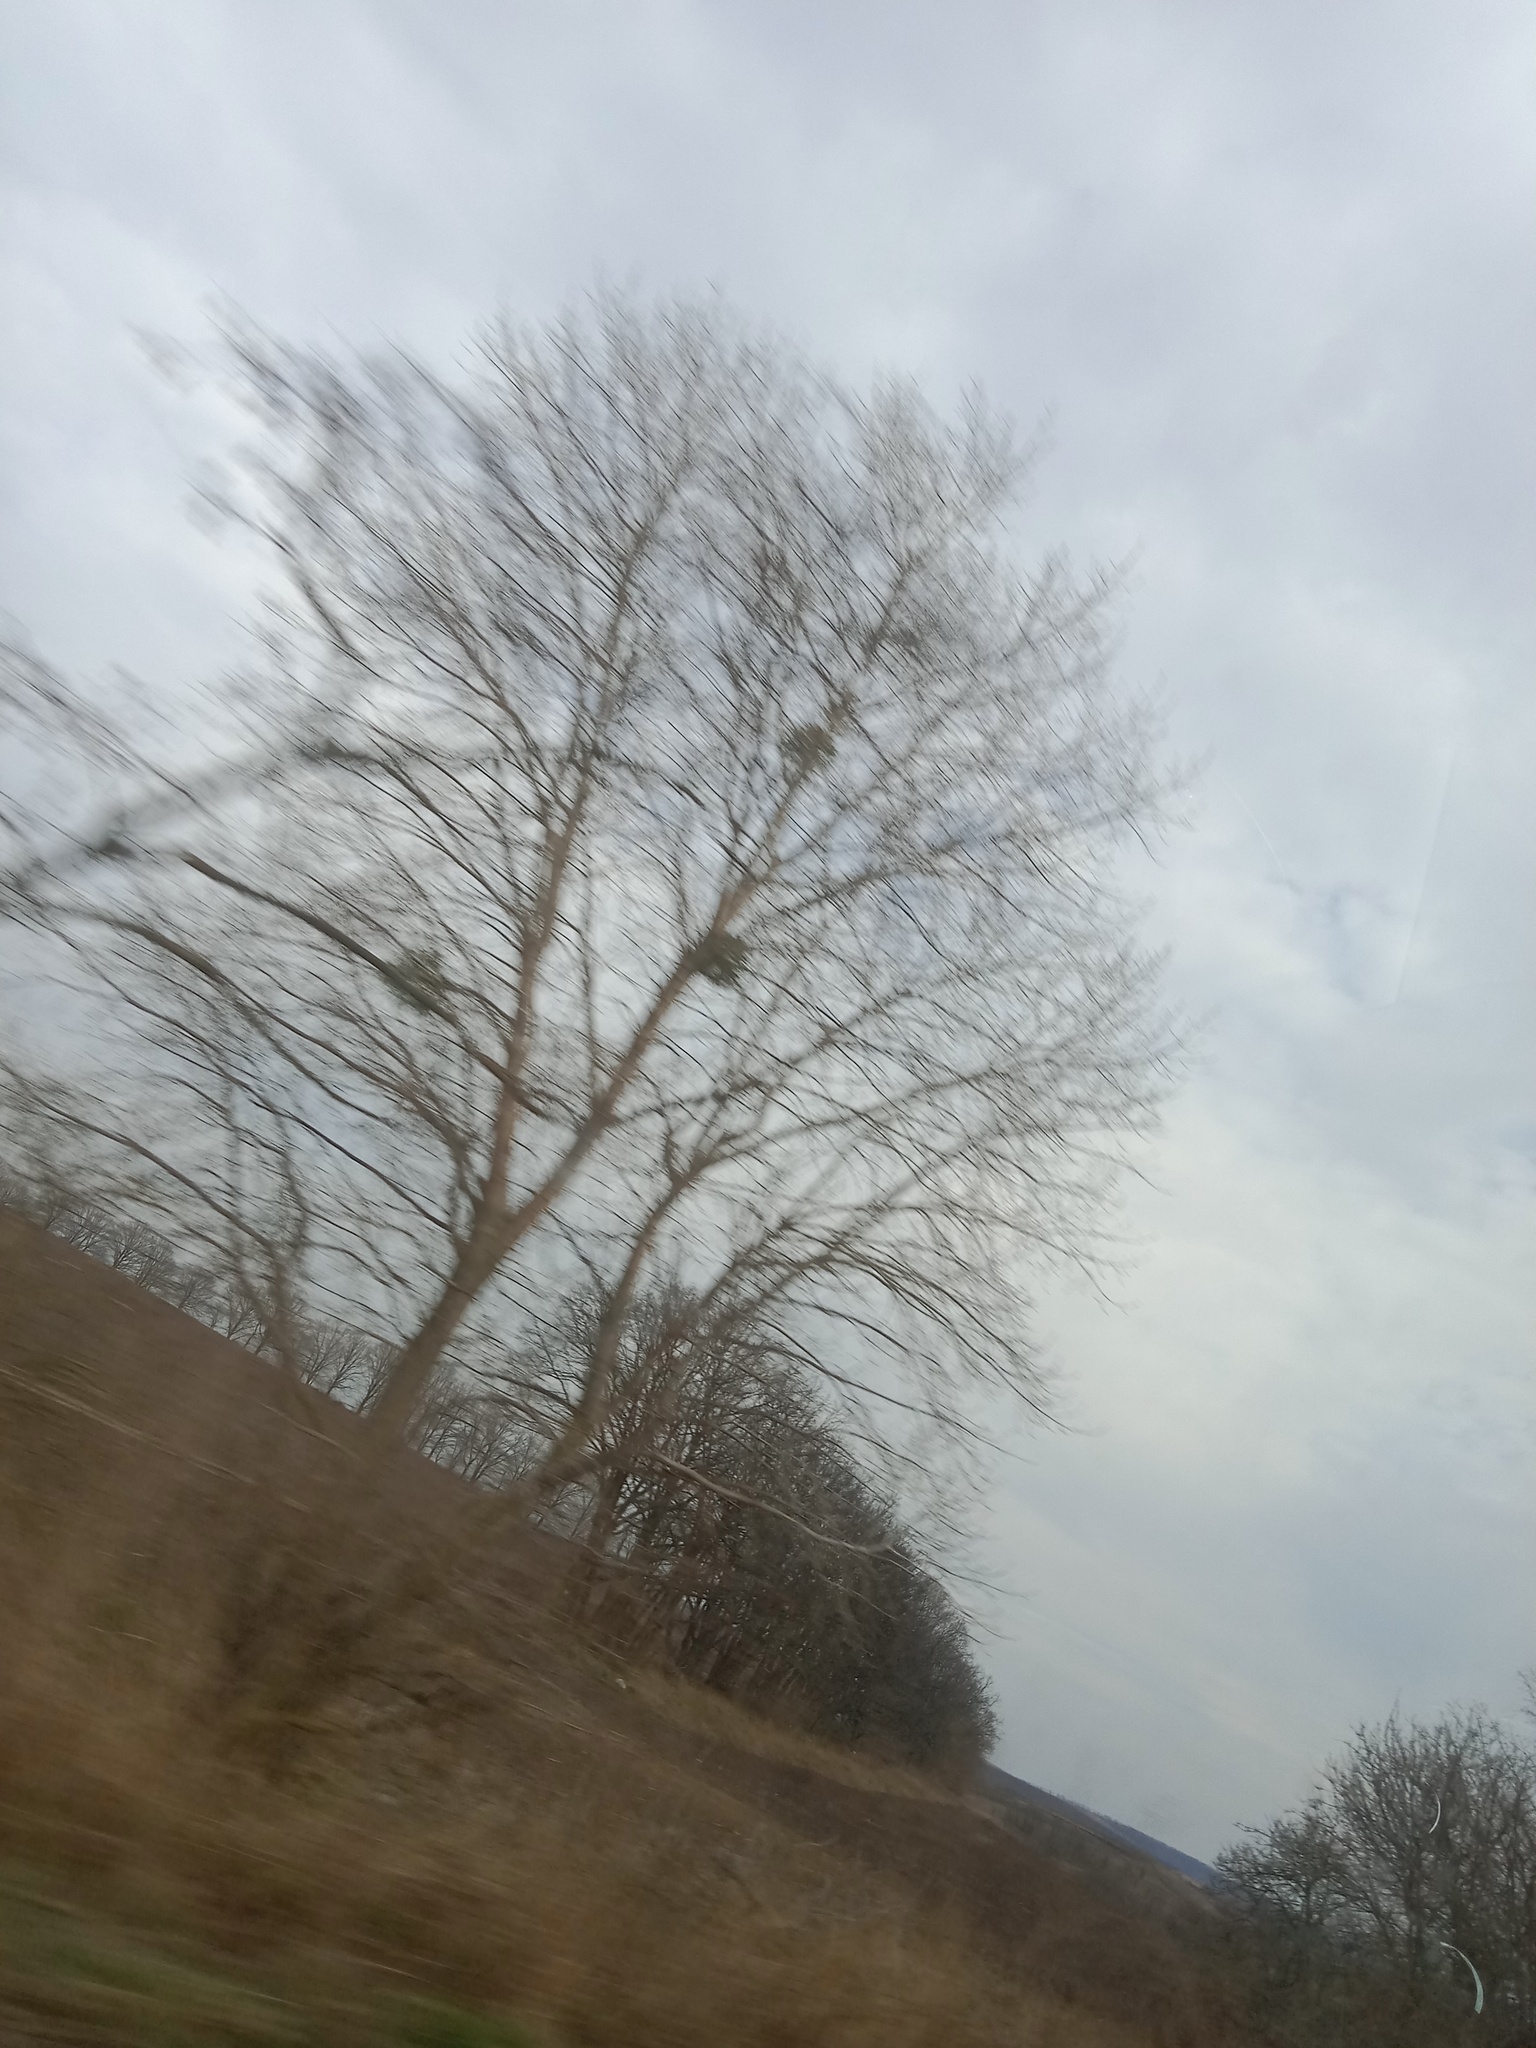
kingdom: Plantae
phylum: Tracheophyta
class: Magnoliopsida
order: Santalales
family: Viscaceae
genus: Viscum
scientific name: Viscum album
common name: Mistletoe
